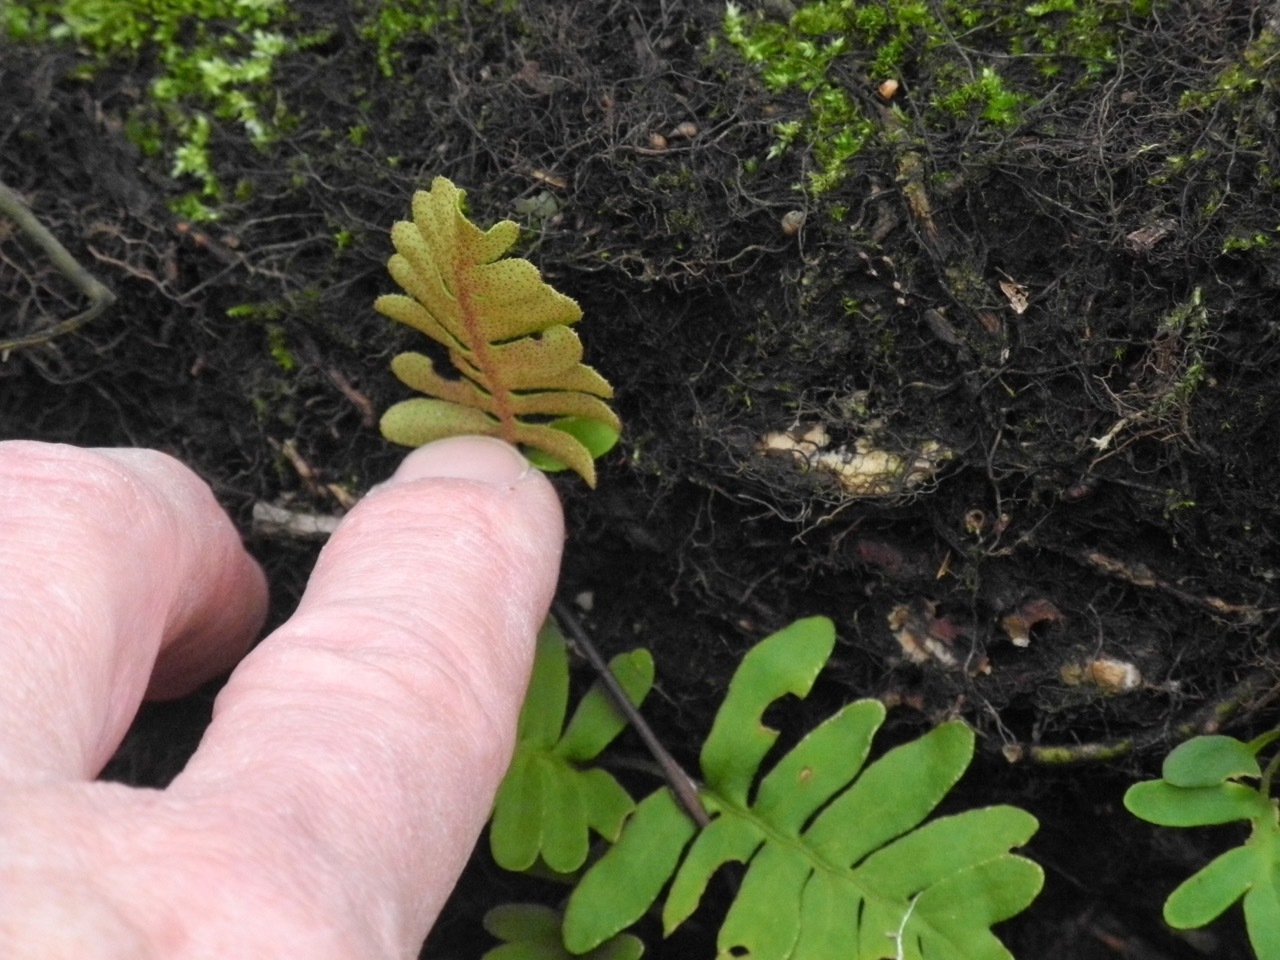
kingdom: Plantae
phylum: Tracheophyta
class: Polypodiopsida
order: Polypodiales
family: Polypodiaceae
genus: Pleopeltis
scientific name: Pleopeltis michauxiana
